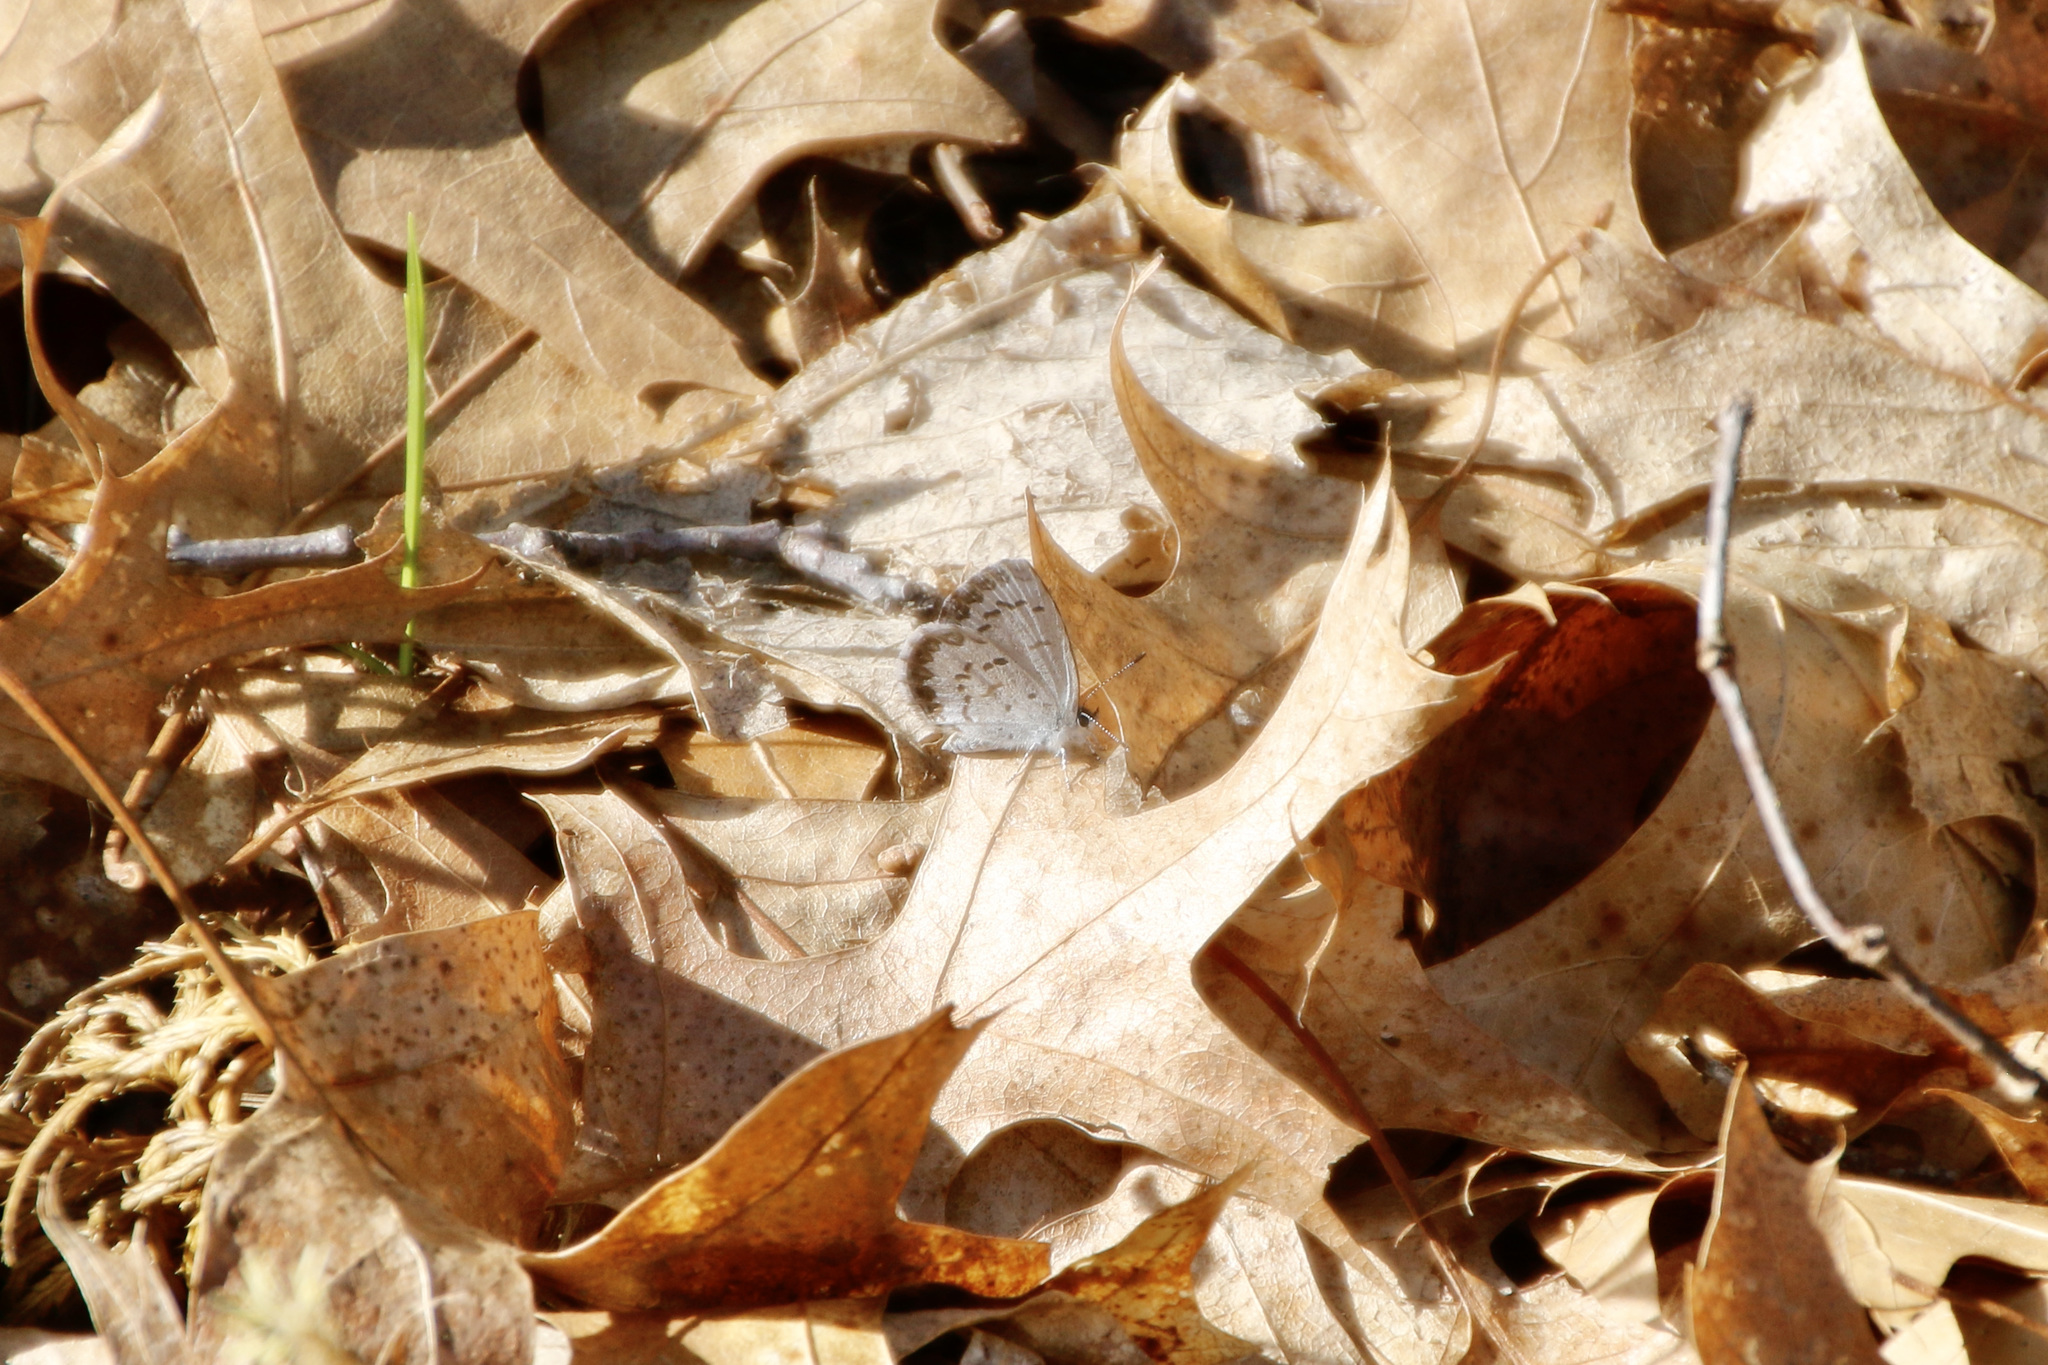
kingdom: Animalia
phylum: Arthropoda
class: Insecta
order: Lepidoptera
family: Lycaenidae
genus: Celastrina
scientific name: Celastrina lucia
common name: Lucia azure
